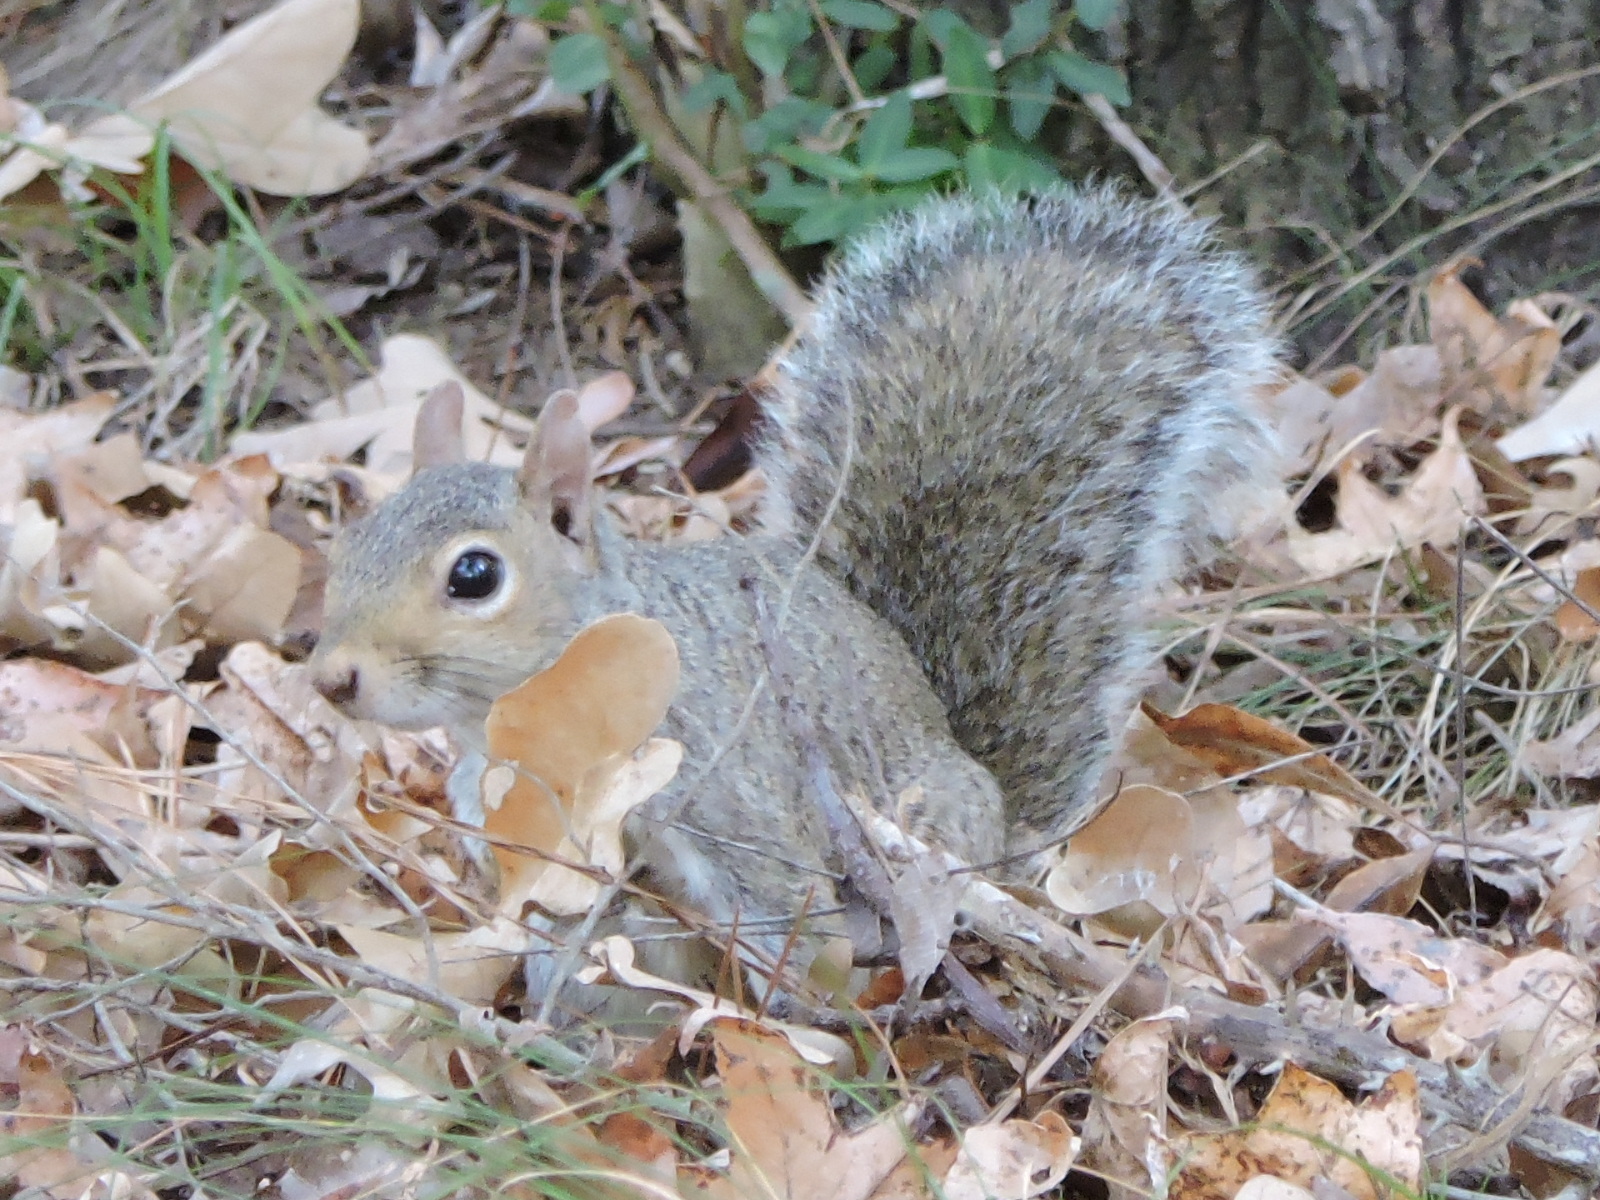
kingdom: Animalia
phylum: Chordata
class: Mammalia
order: Rodentia
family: Sciuridae
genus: Sciurus
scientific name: Sciurus carolinensis
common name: Eastern gray squirrel
